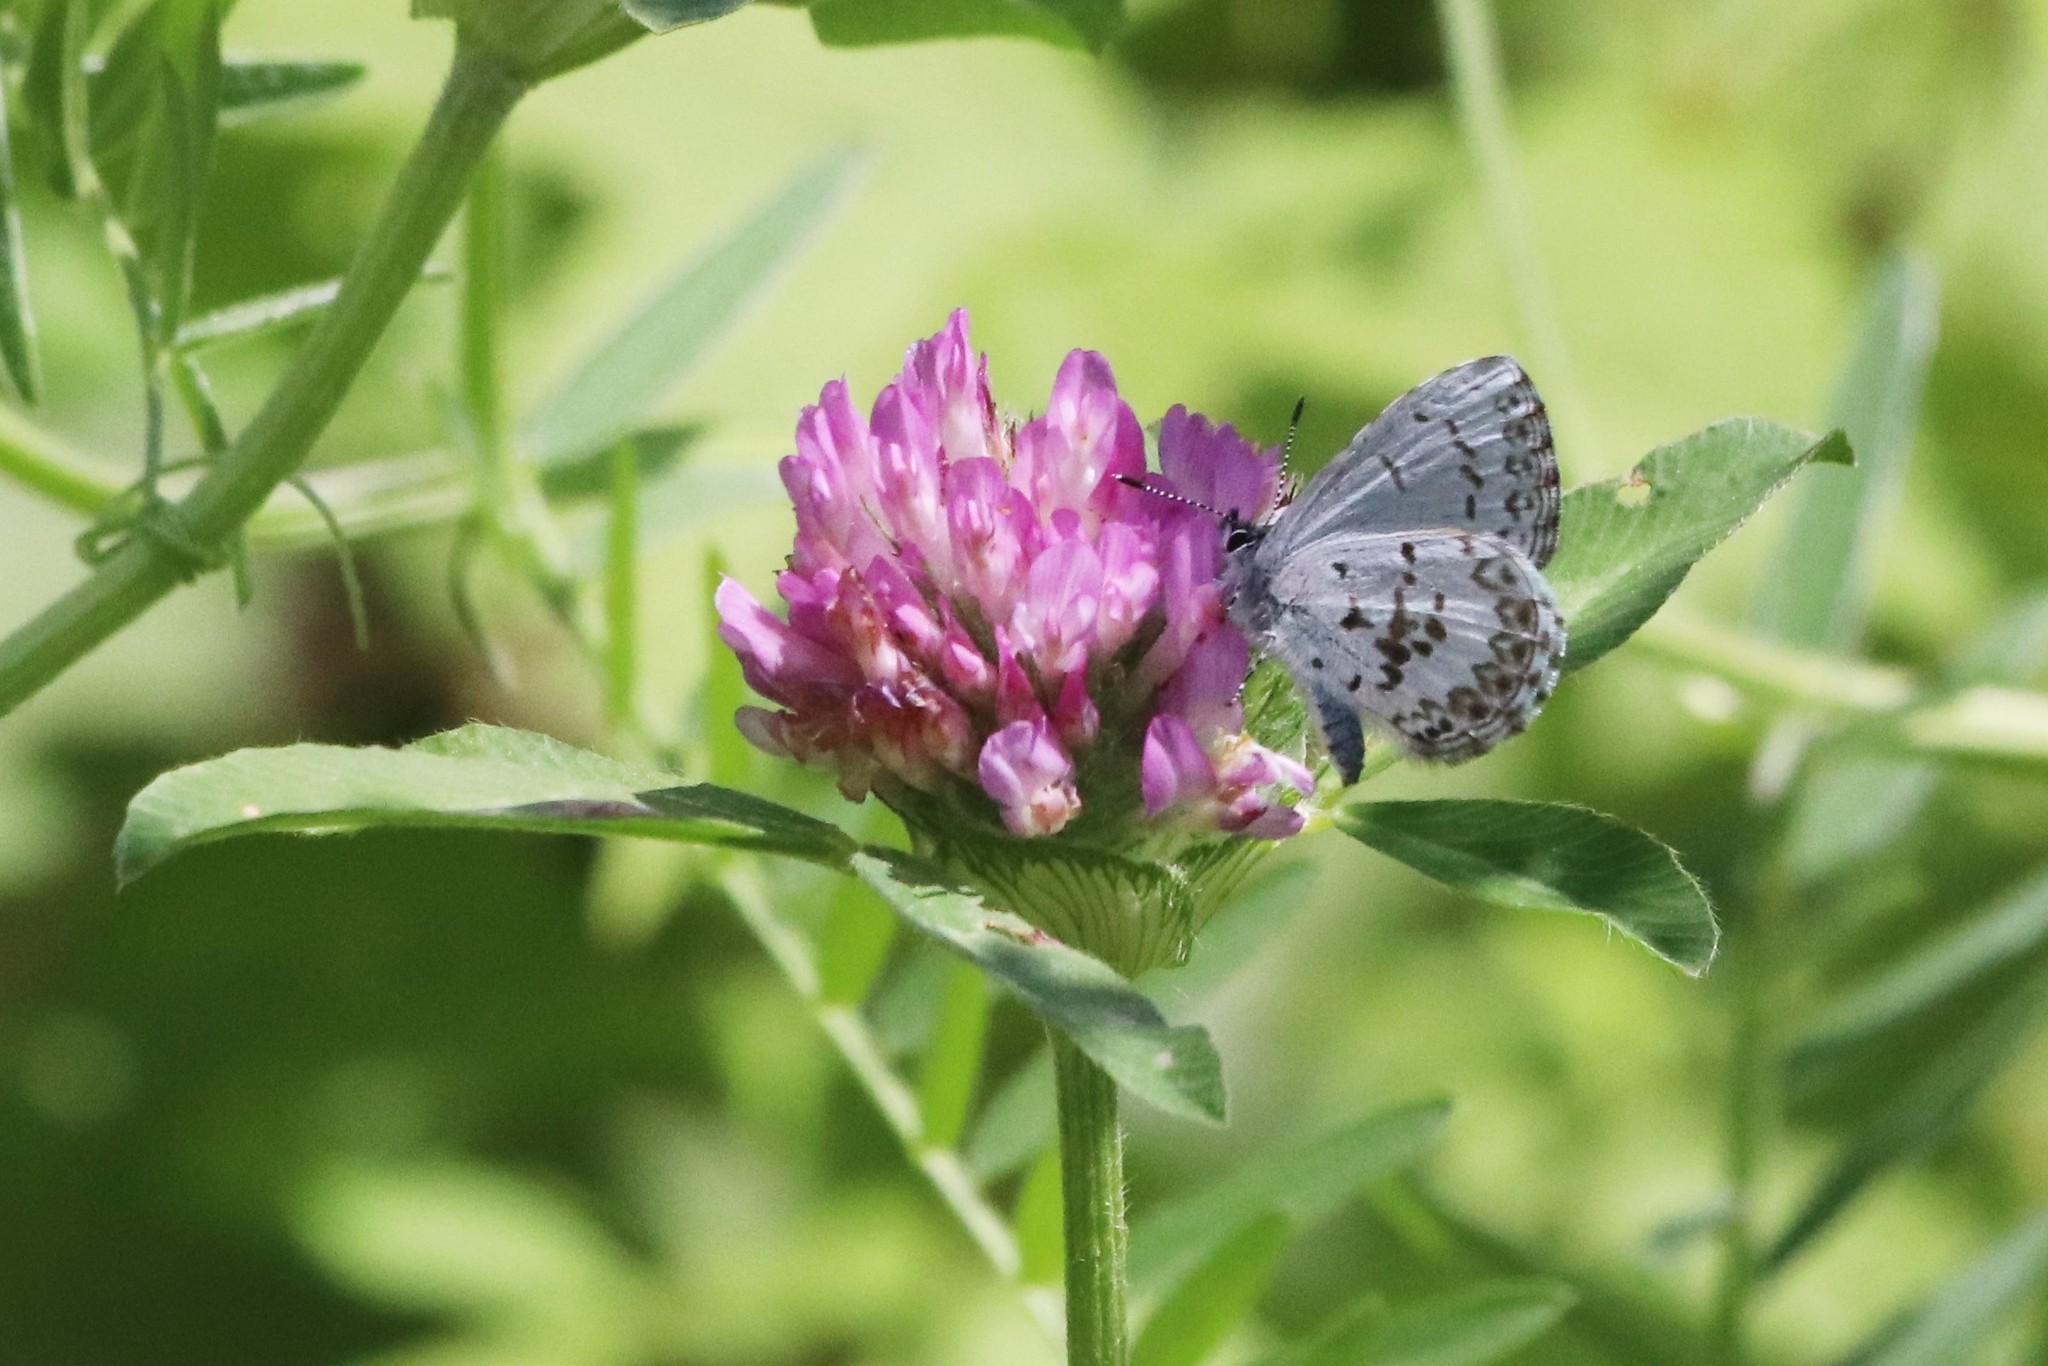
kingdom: Animalia
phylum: Arthropoda
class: Insecta
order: Lepidoptera
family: Lycaenidae
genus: Celastrina
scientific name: Celastrina lucia
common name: Lucia azure
